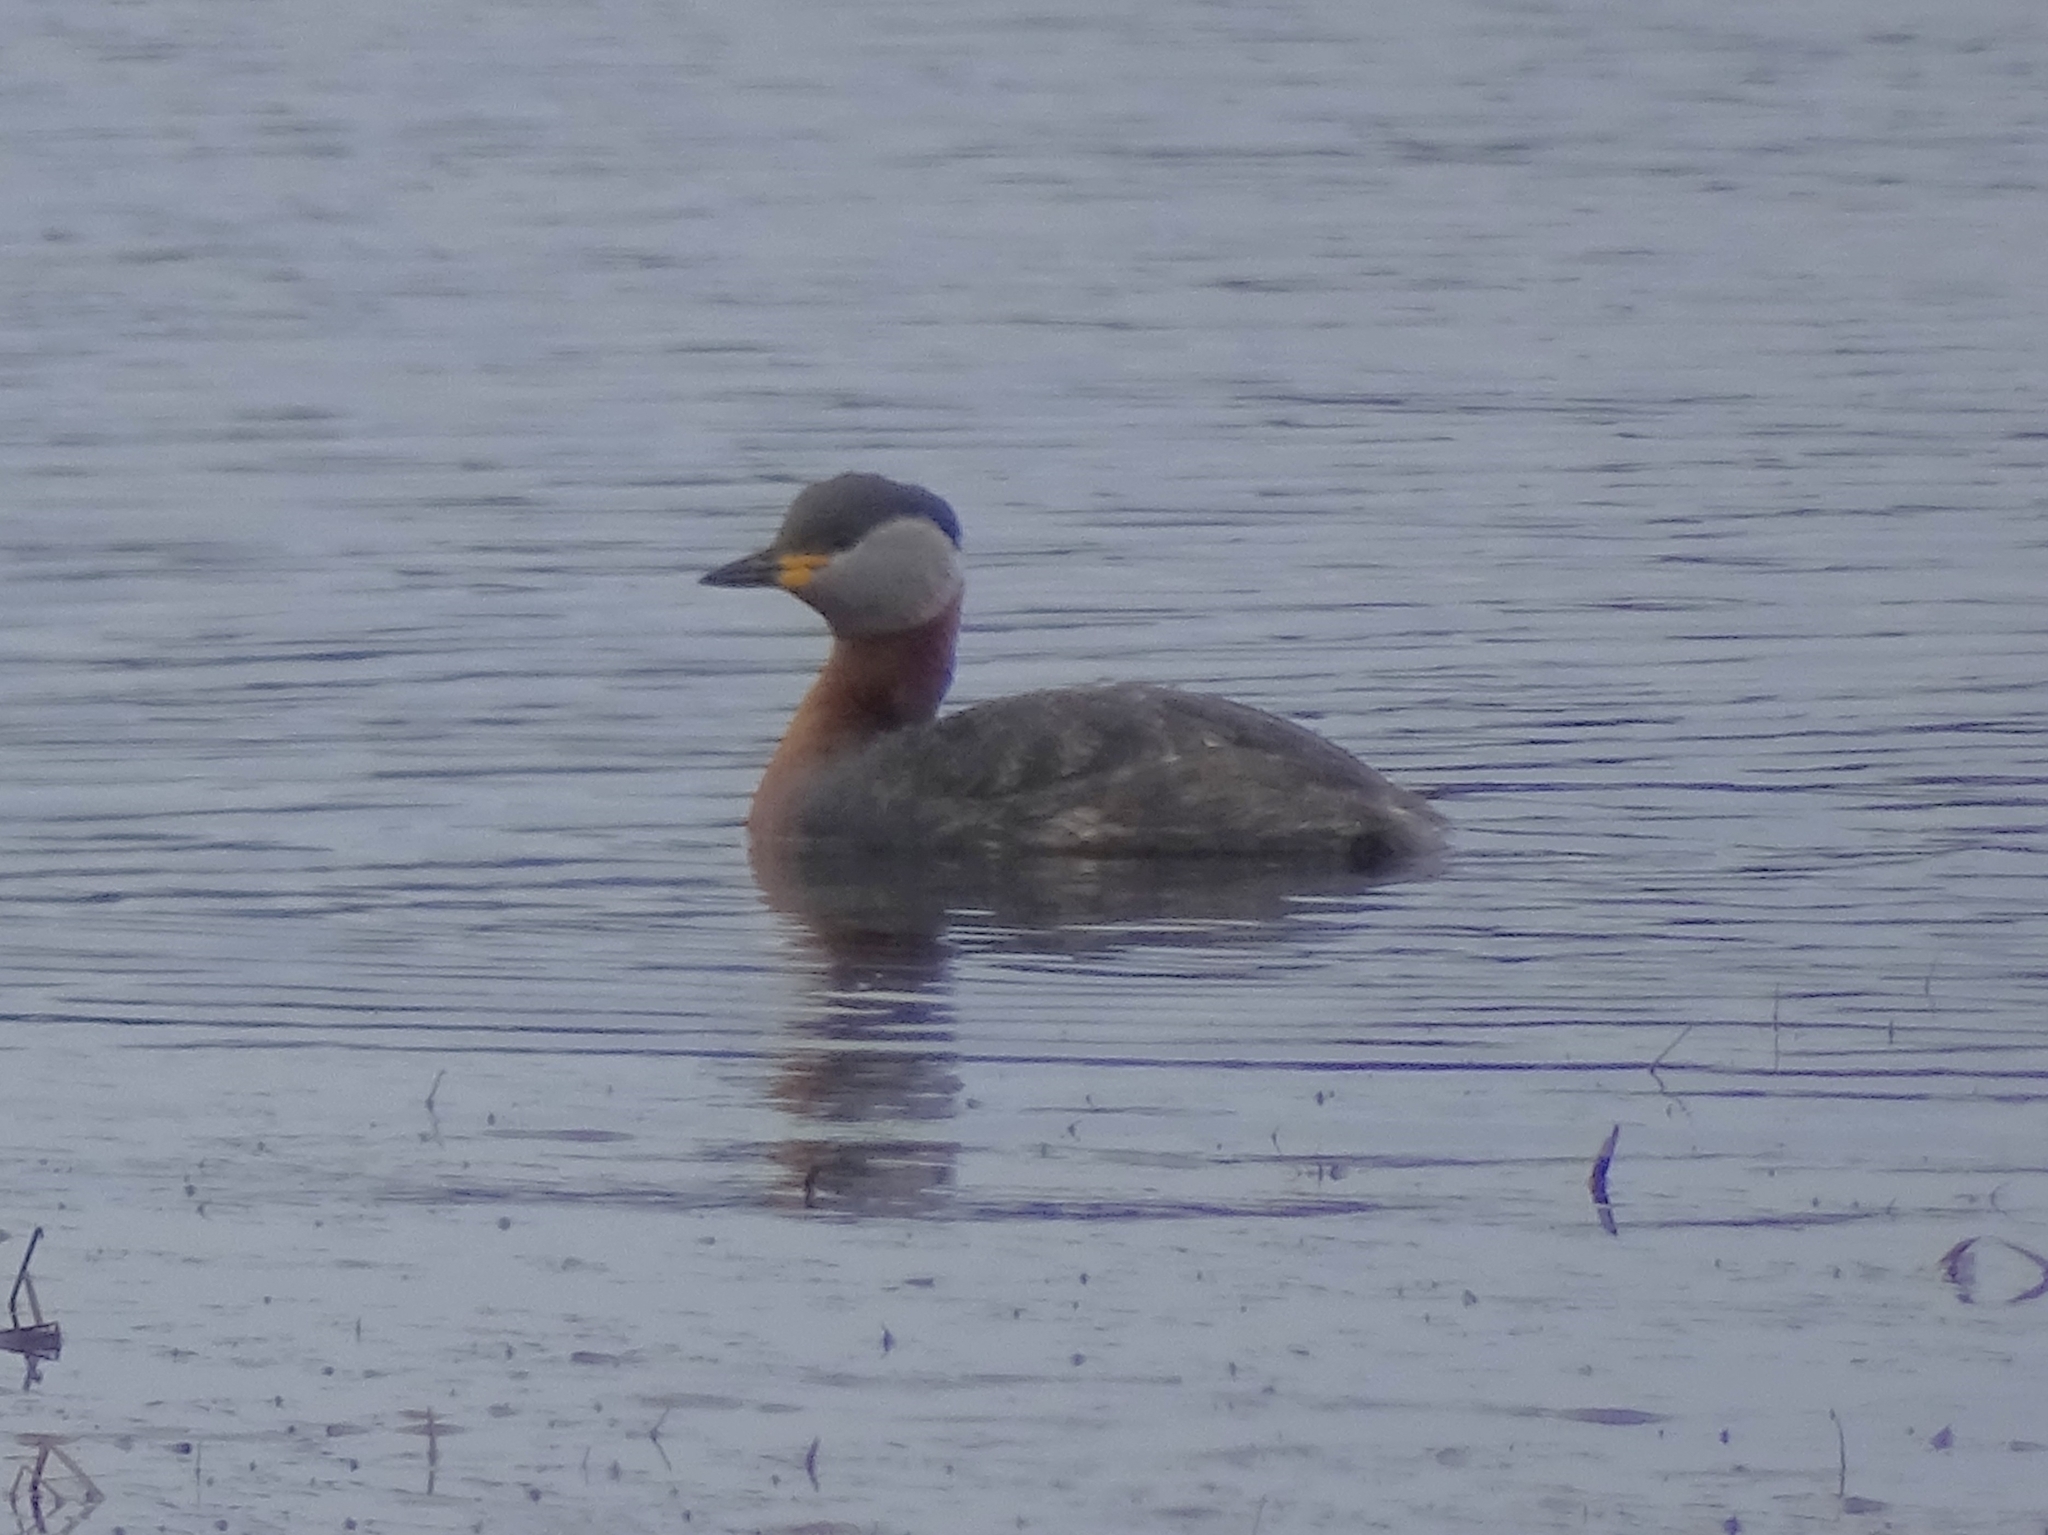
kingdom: Animalia
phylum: Chordata
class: Aves
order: Podicipediformes
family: Podicipedidae
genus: Podiceps
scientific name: Podiceps grisegena
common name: Red-necked grebe
